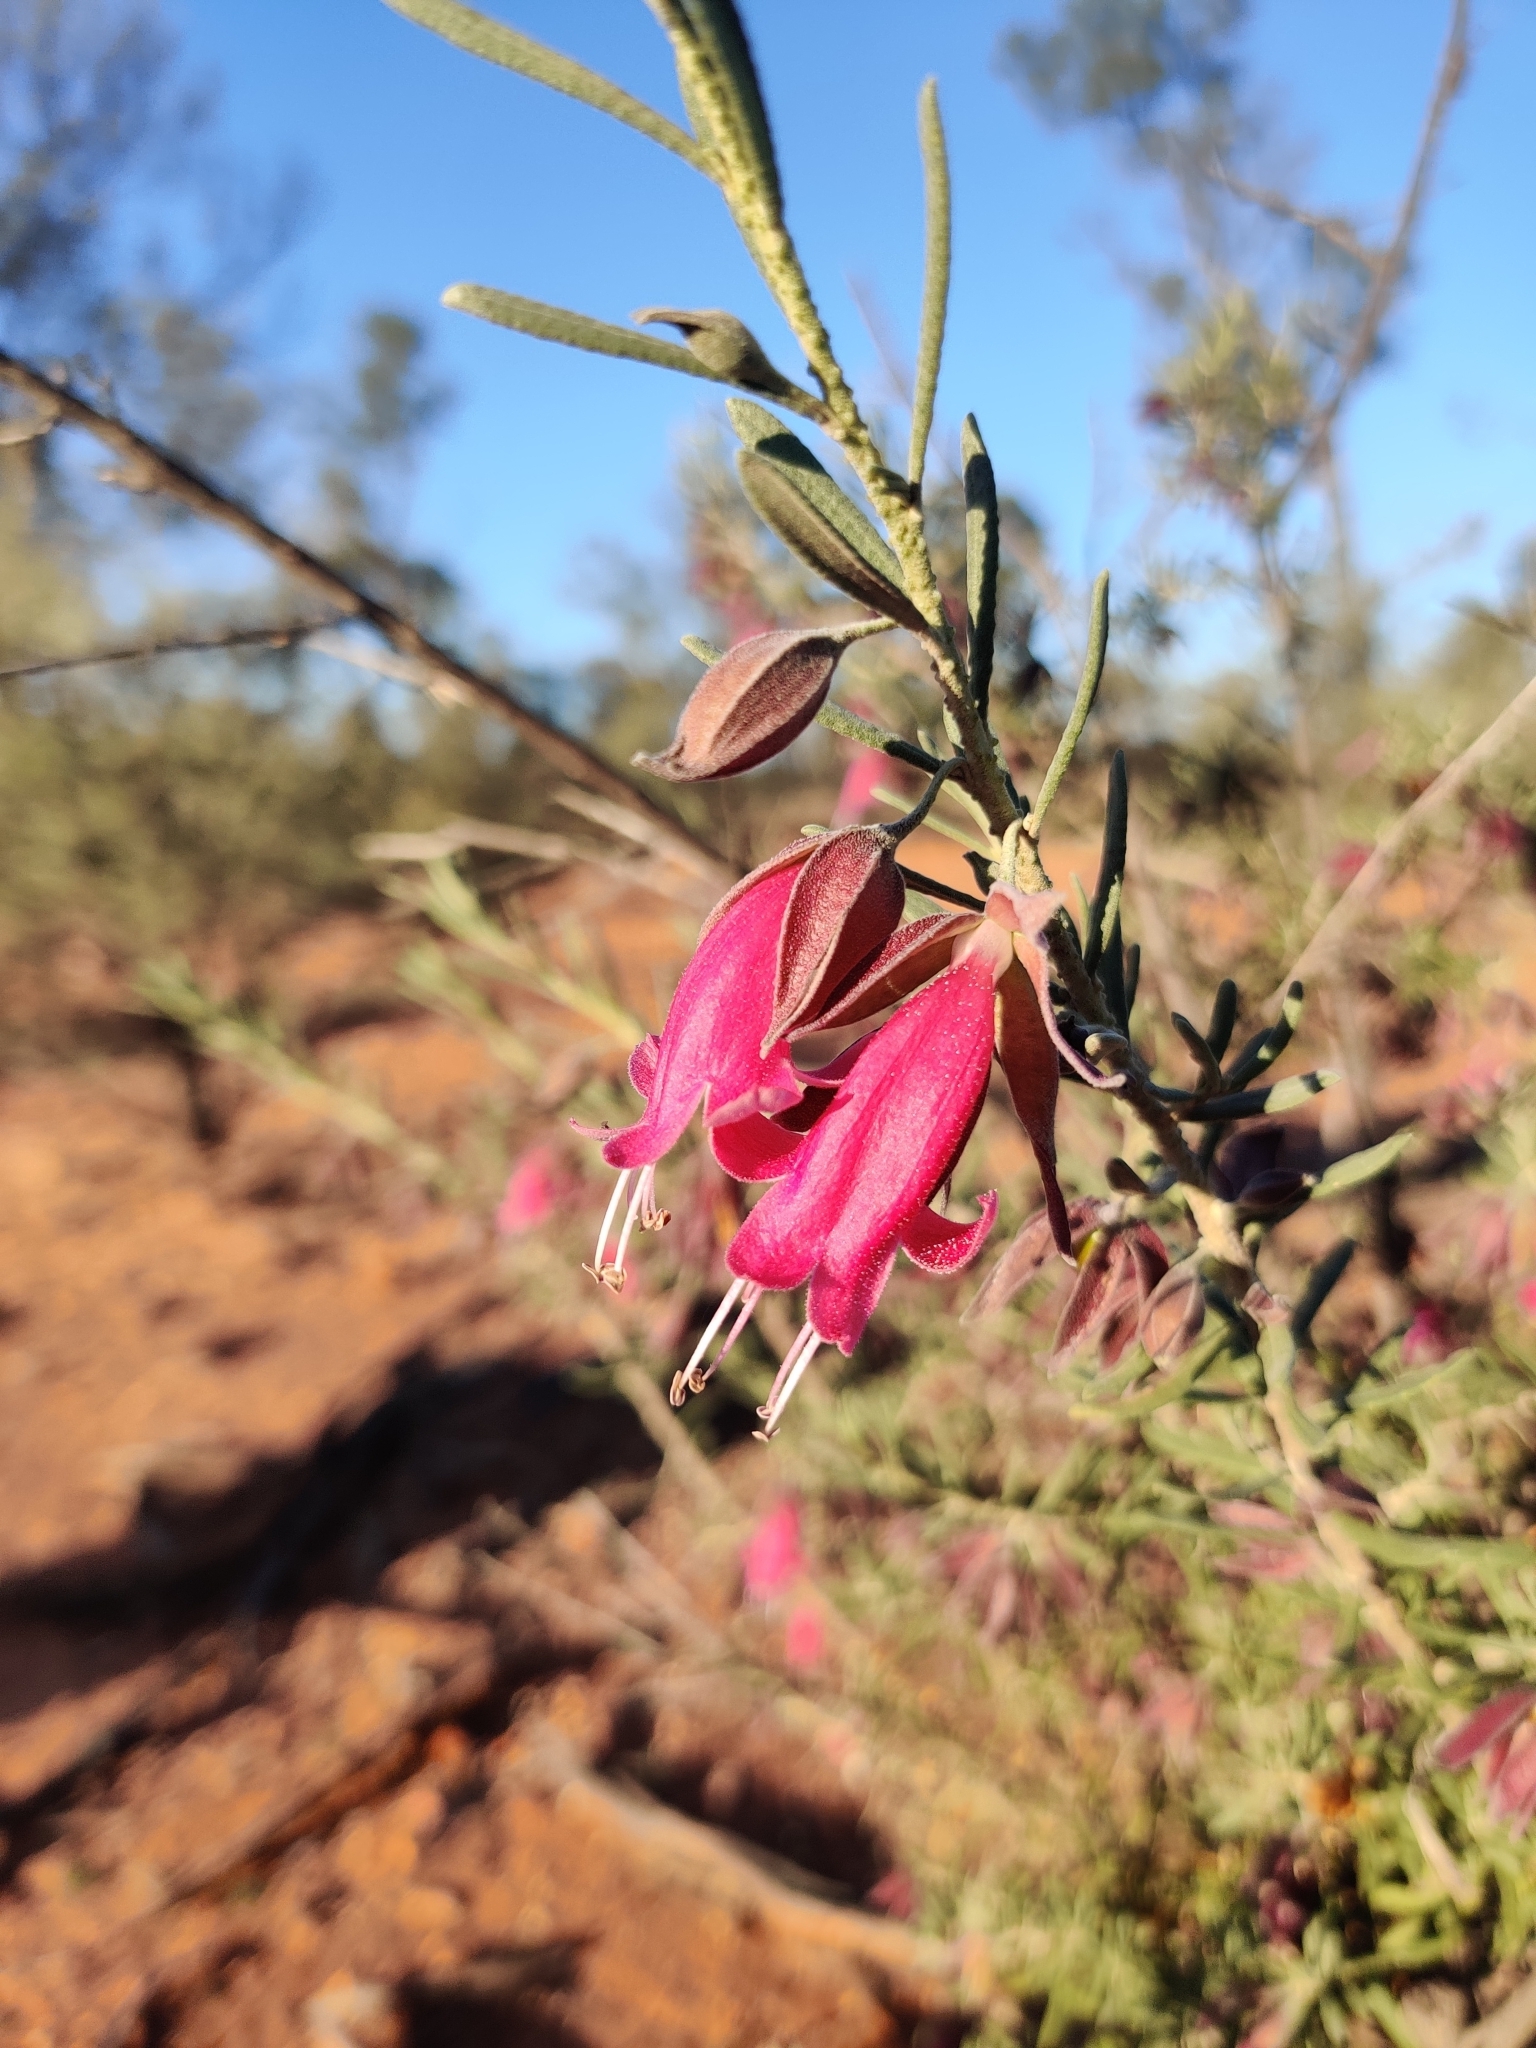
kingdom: Plantae
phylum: Tracheophyta
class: Magnoliopsida
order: Lamiales
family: Scrophulariaceae
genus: Eremophila
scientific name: Eremophila latrobei
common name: Crimson turkeybush
